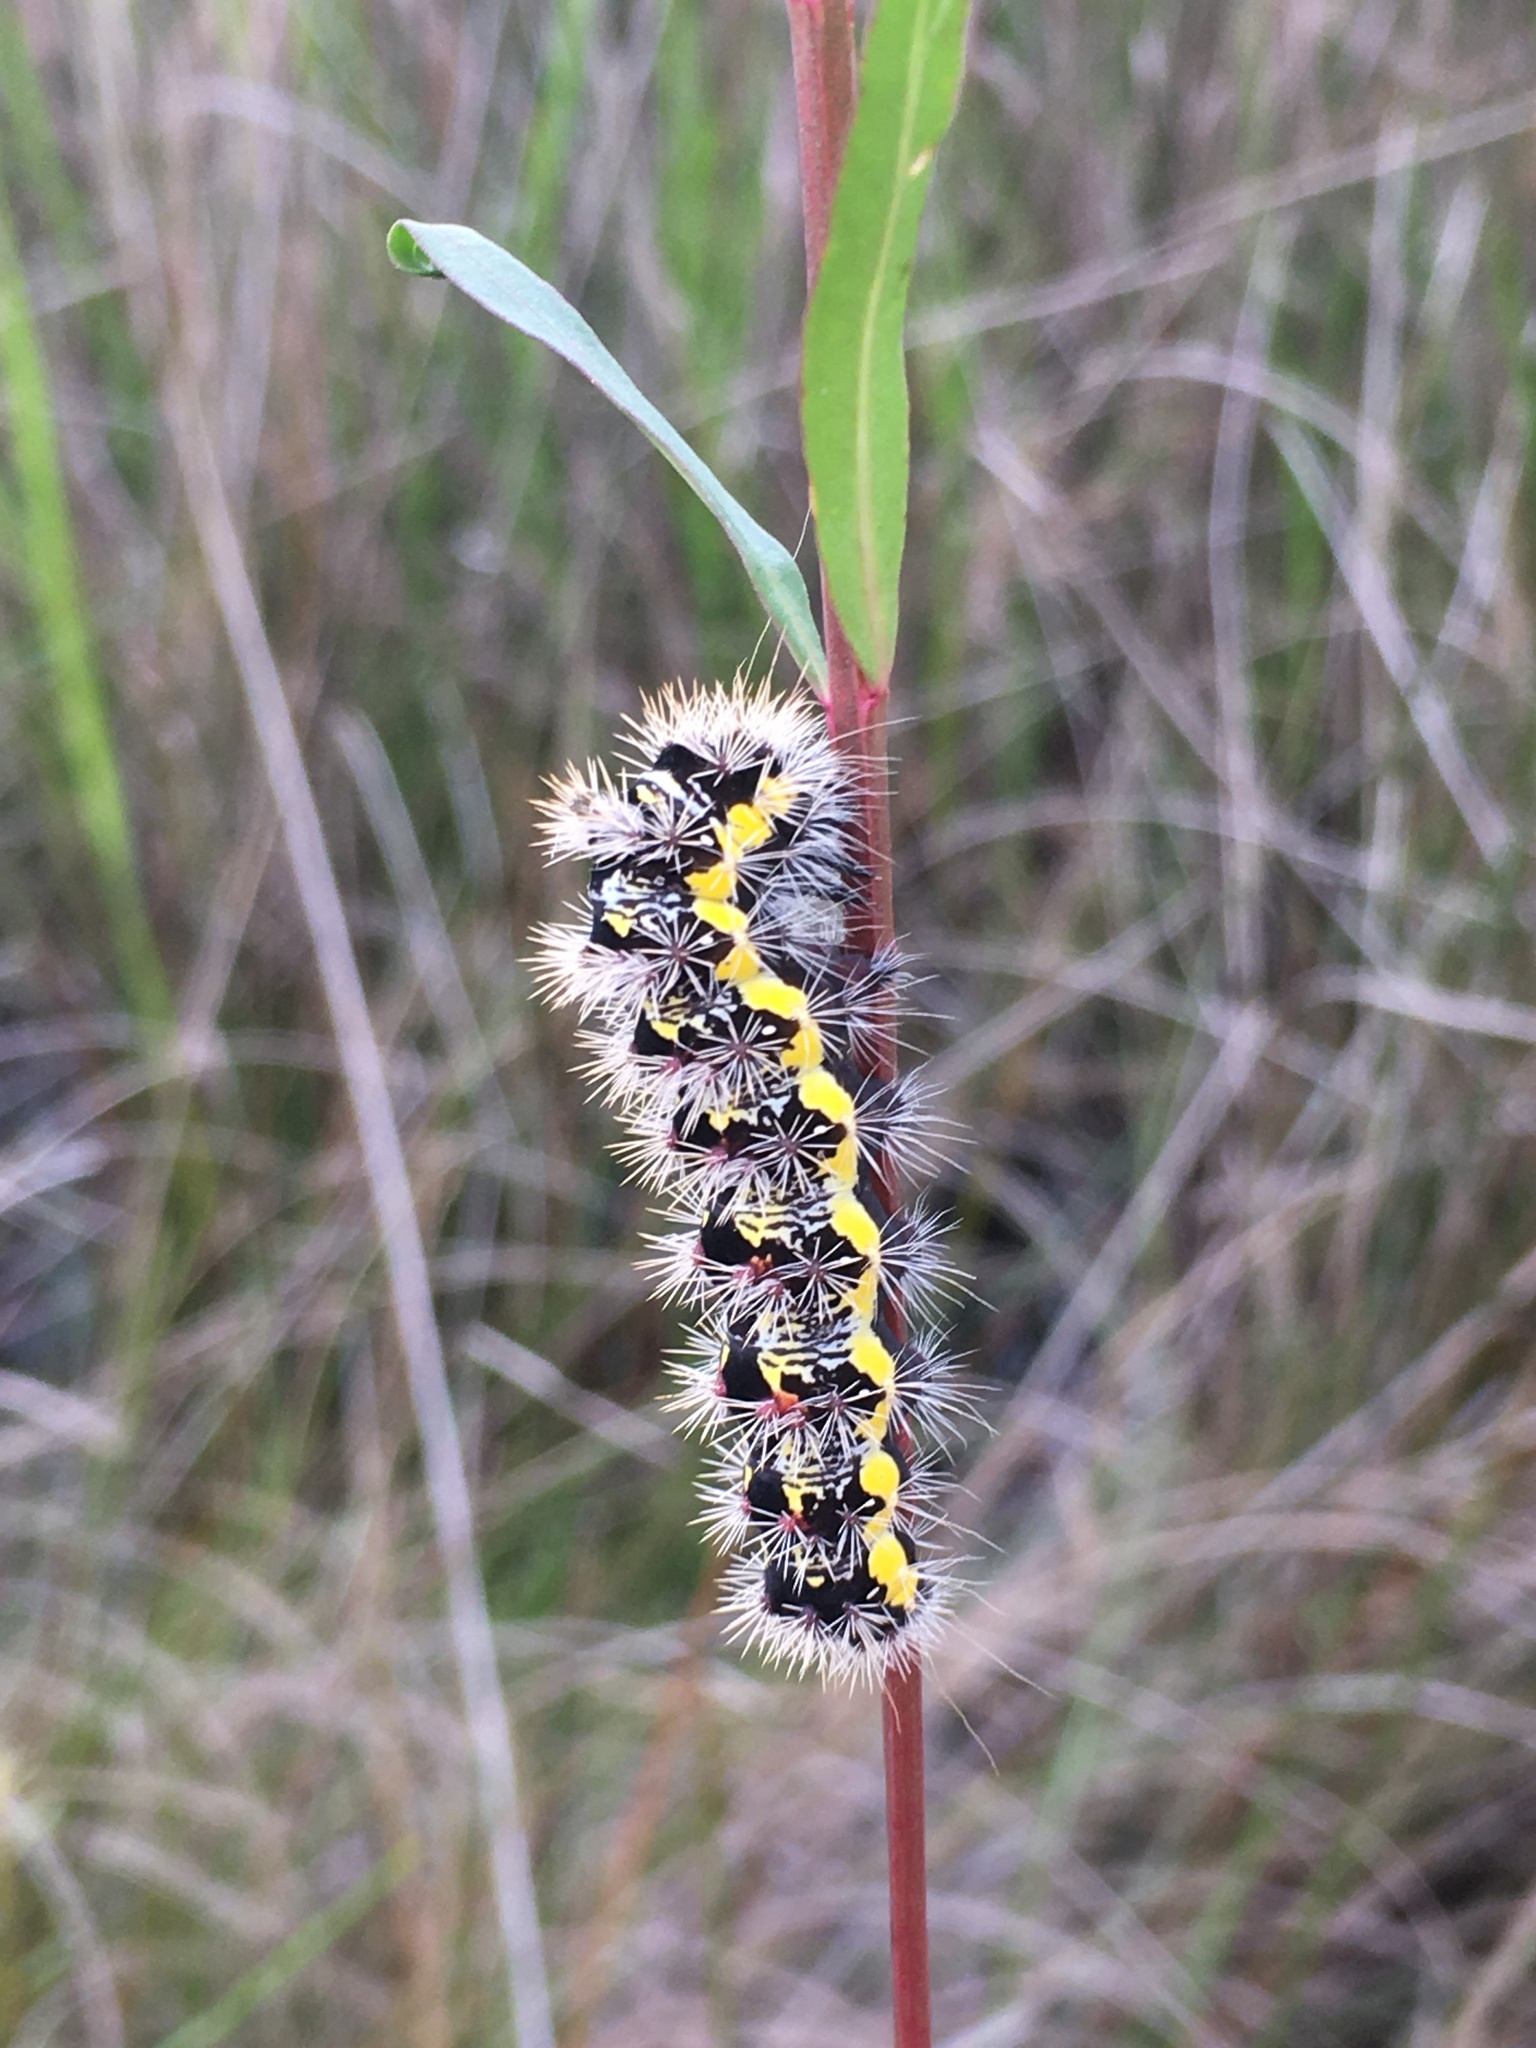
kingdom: Animalia
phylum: Arthropoda
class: Insecta
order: Lepidoptera
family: Noctuidae
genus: Acronicta
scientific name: Acronicta oblinita
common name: Smeared dagger
